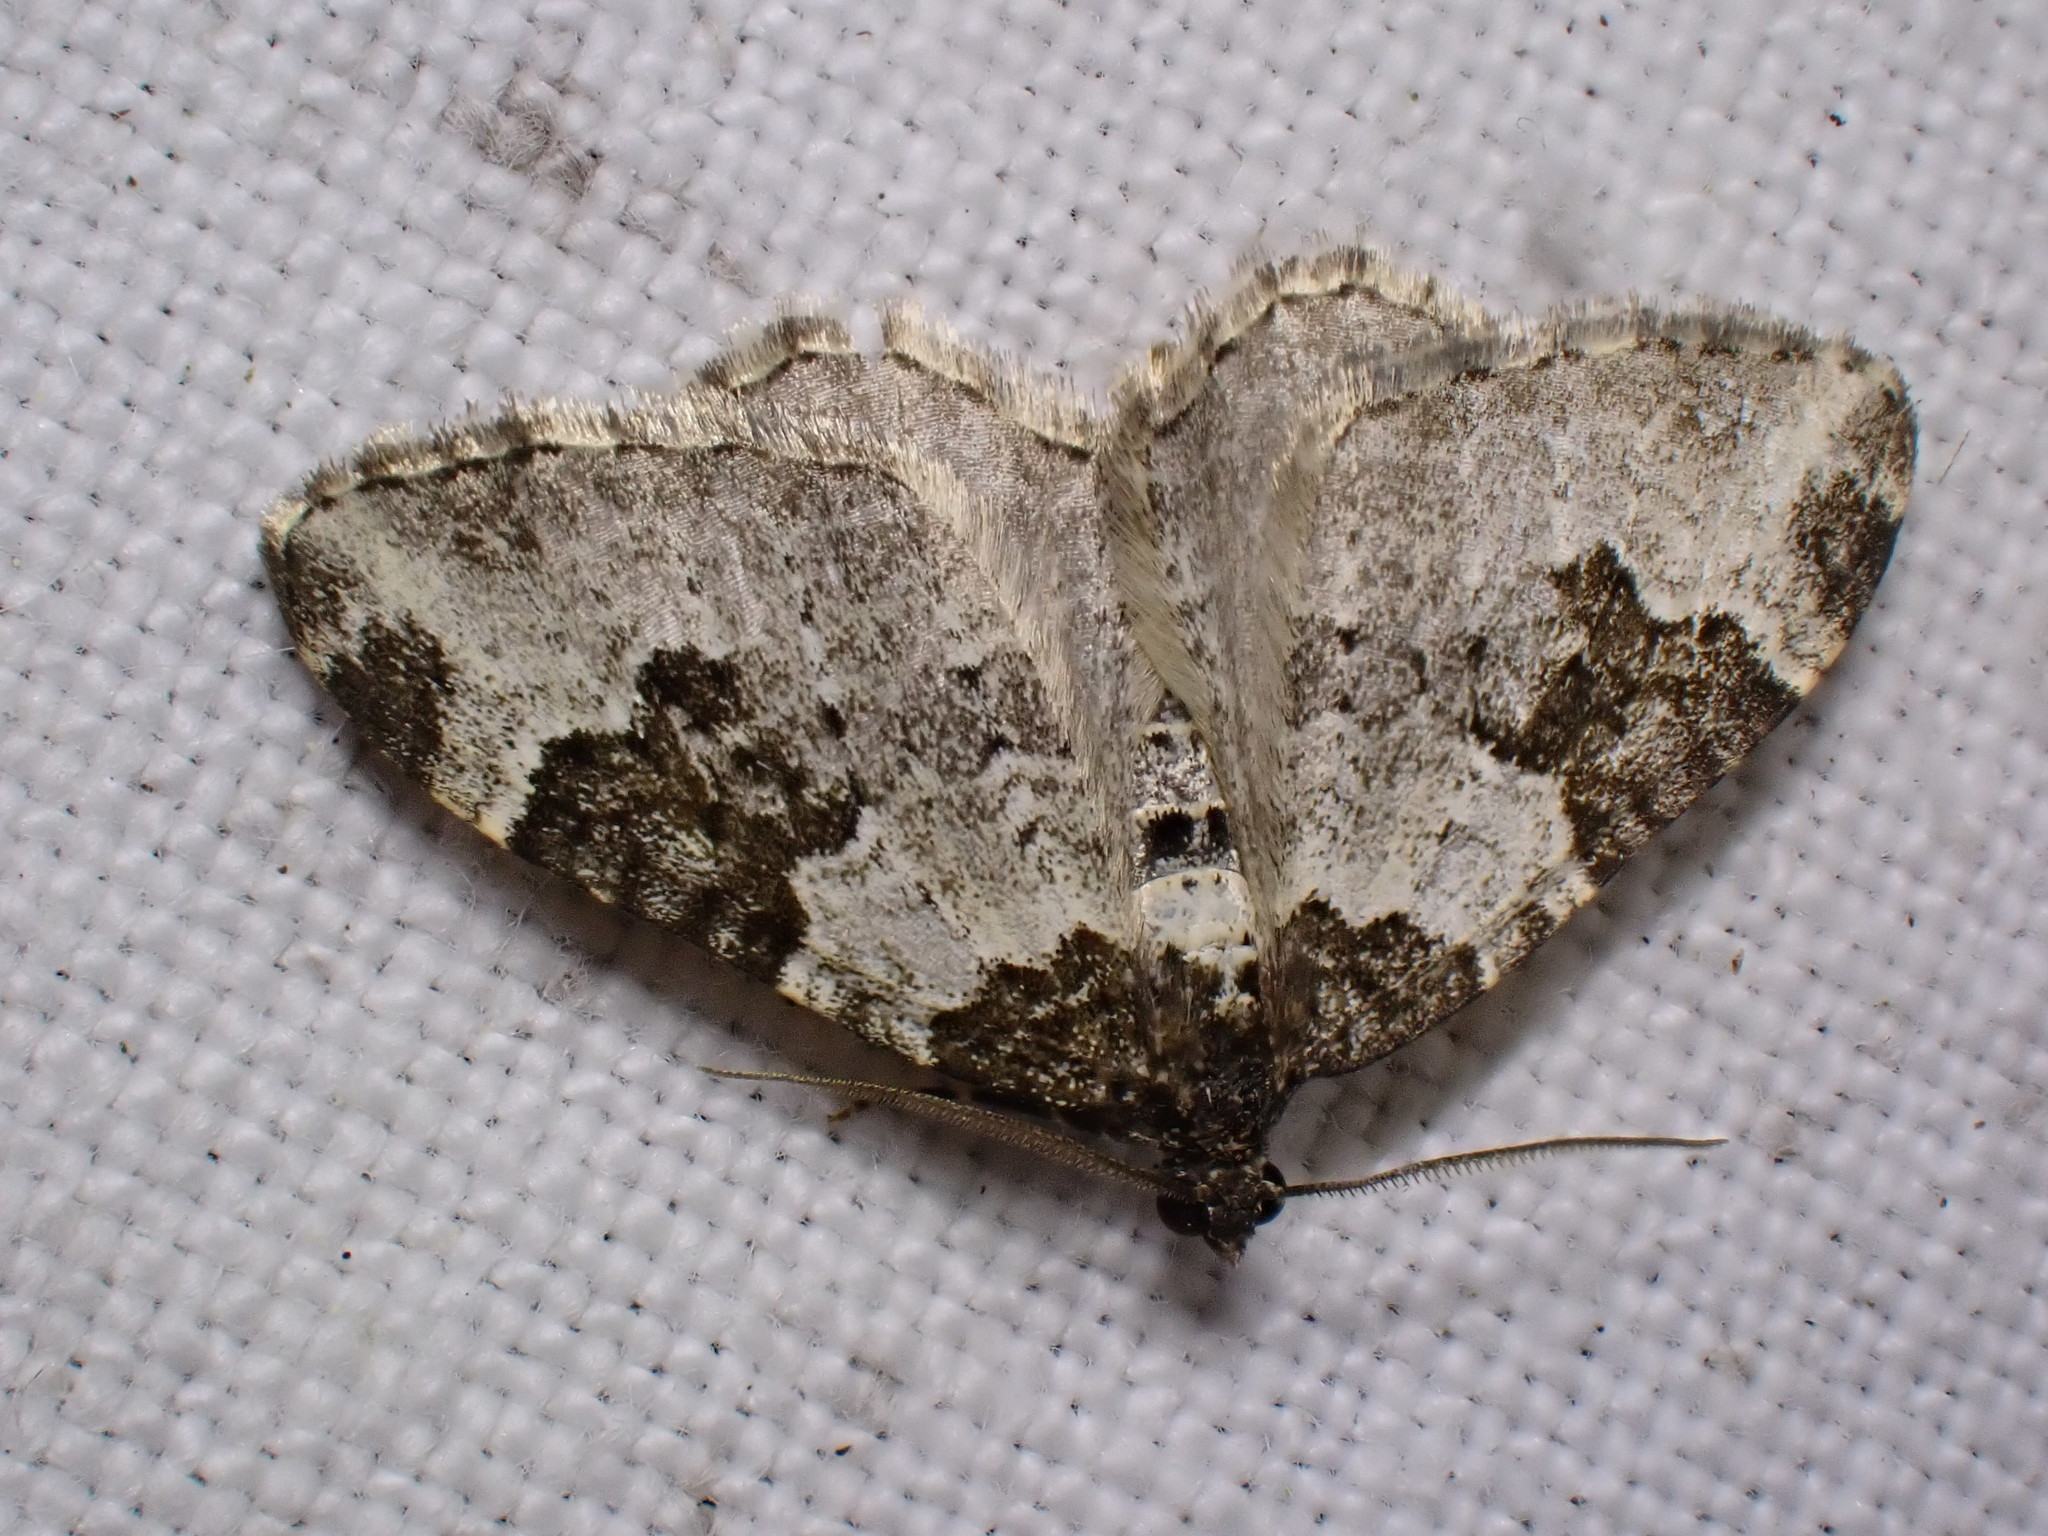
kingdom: Animalia
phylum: Arthropoda
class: Insecta
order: Lepidoptera
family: Geometridae
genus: Xanthorhoe
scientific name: Xanthorhoe fluctuata
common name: Garden carpet
